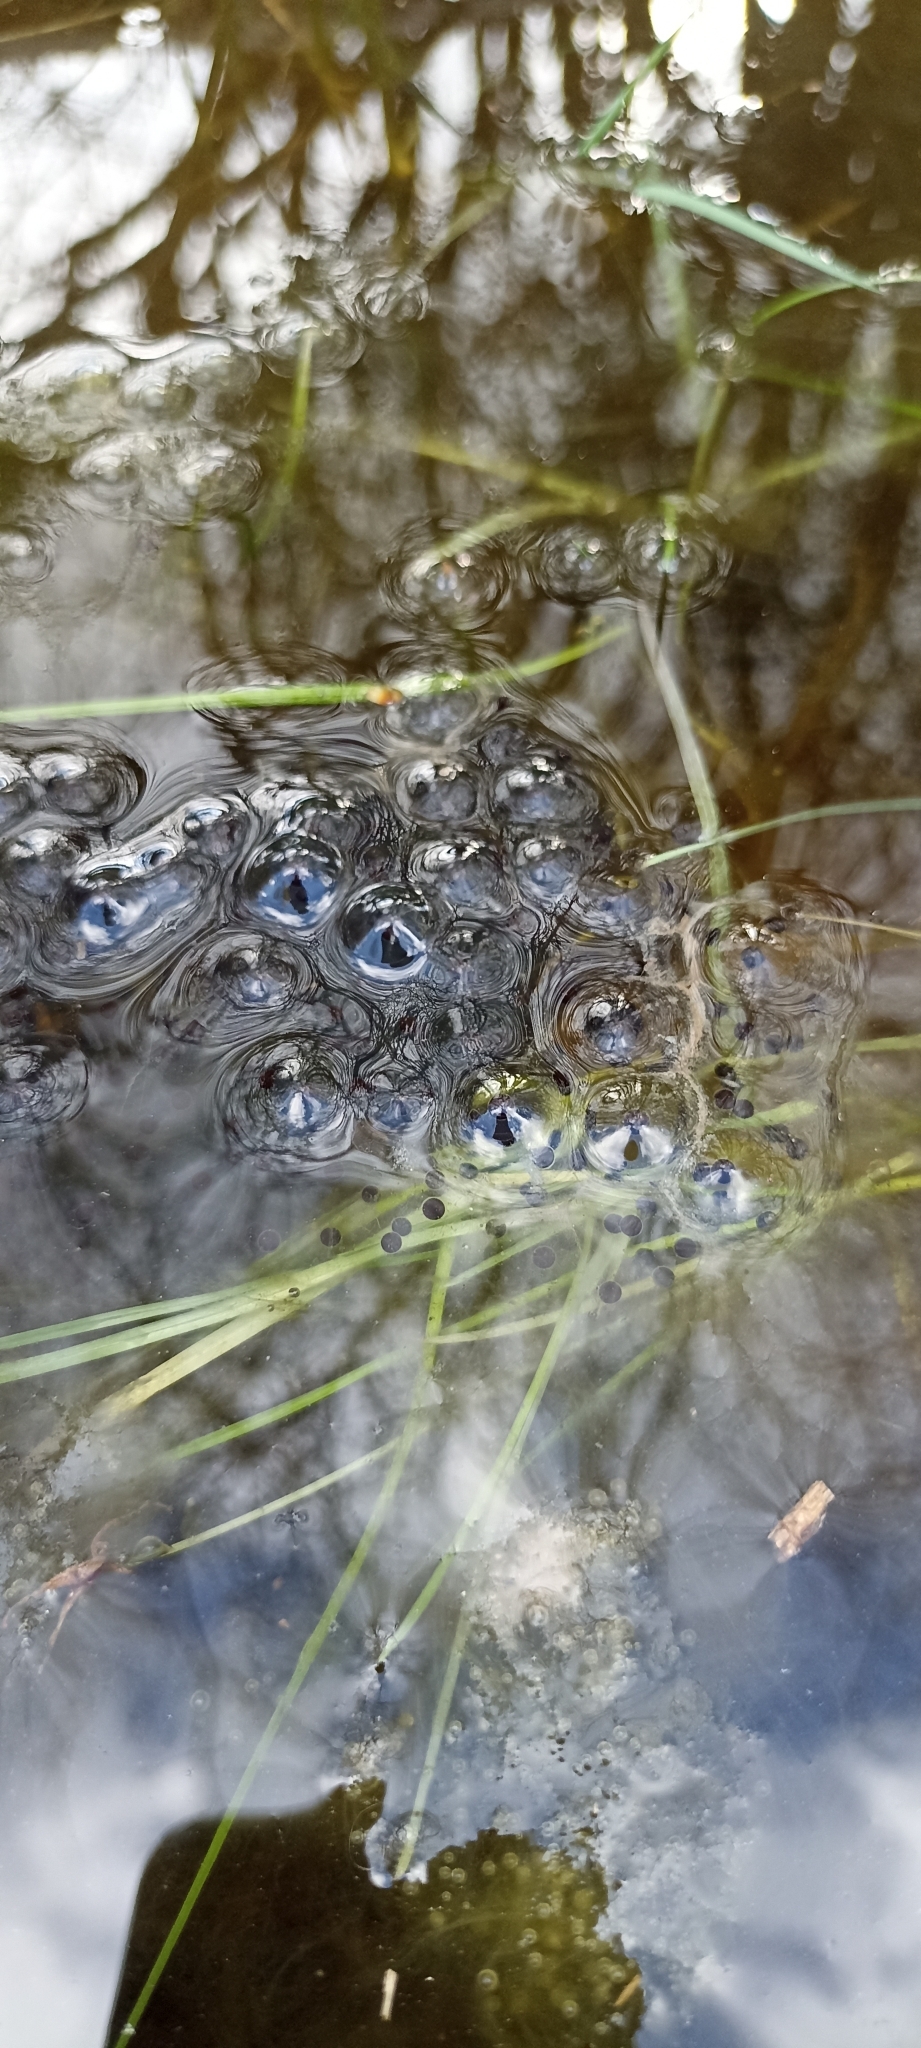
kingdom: Animalia
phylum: Chordata
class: Amphibia
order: Anura
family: Ranidae
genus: Rana
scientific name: Rana dalmatina
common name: Agile frog
